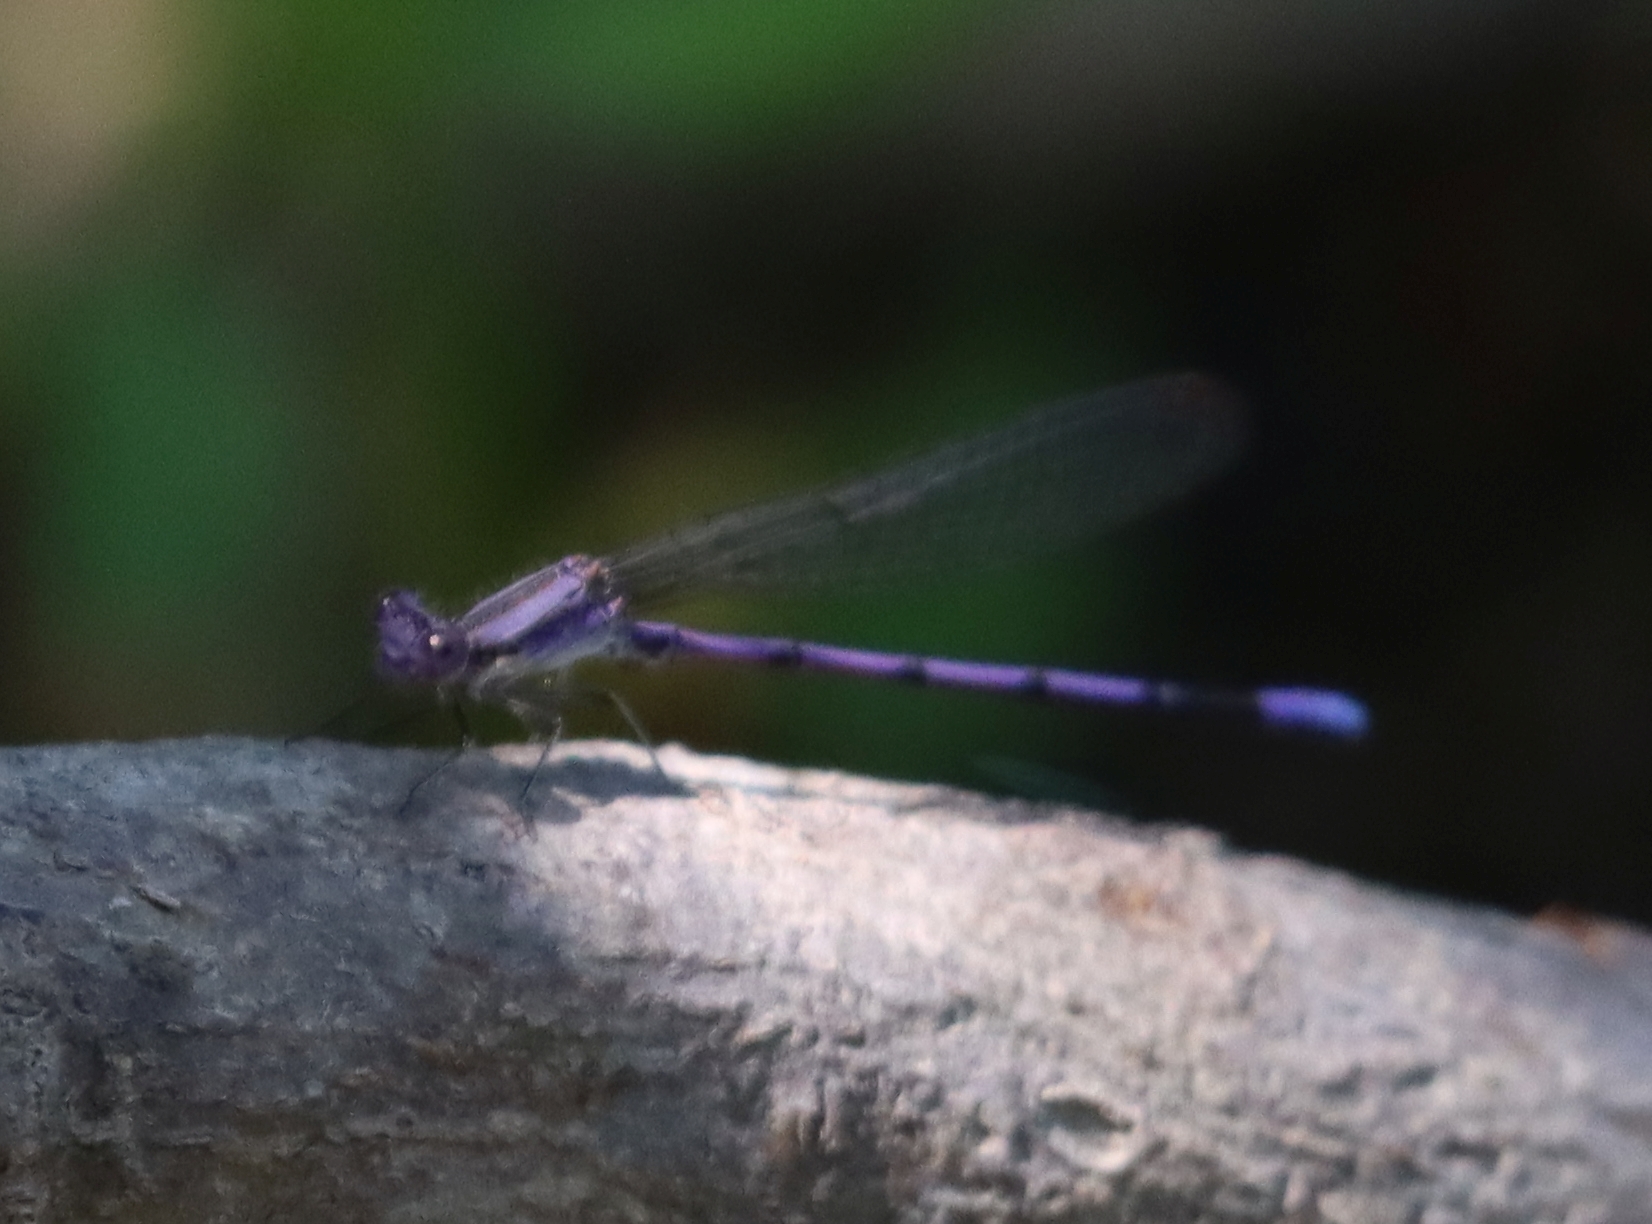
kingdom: Animalia
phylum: Arthropoda
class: Insecta
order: Odonata
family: Coenagrionidae
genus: Argia
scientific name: Argia fumipennis
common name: Variable dancer
